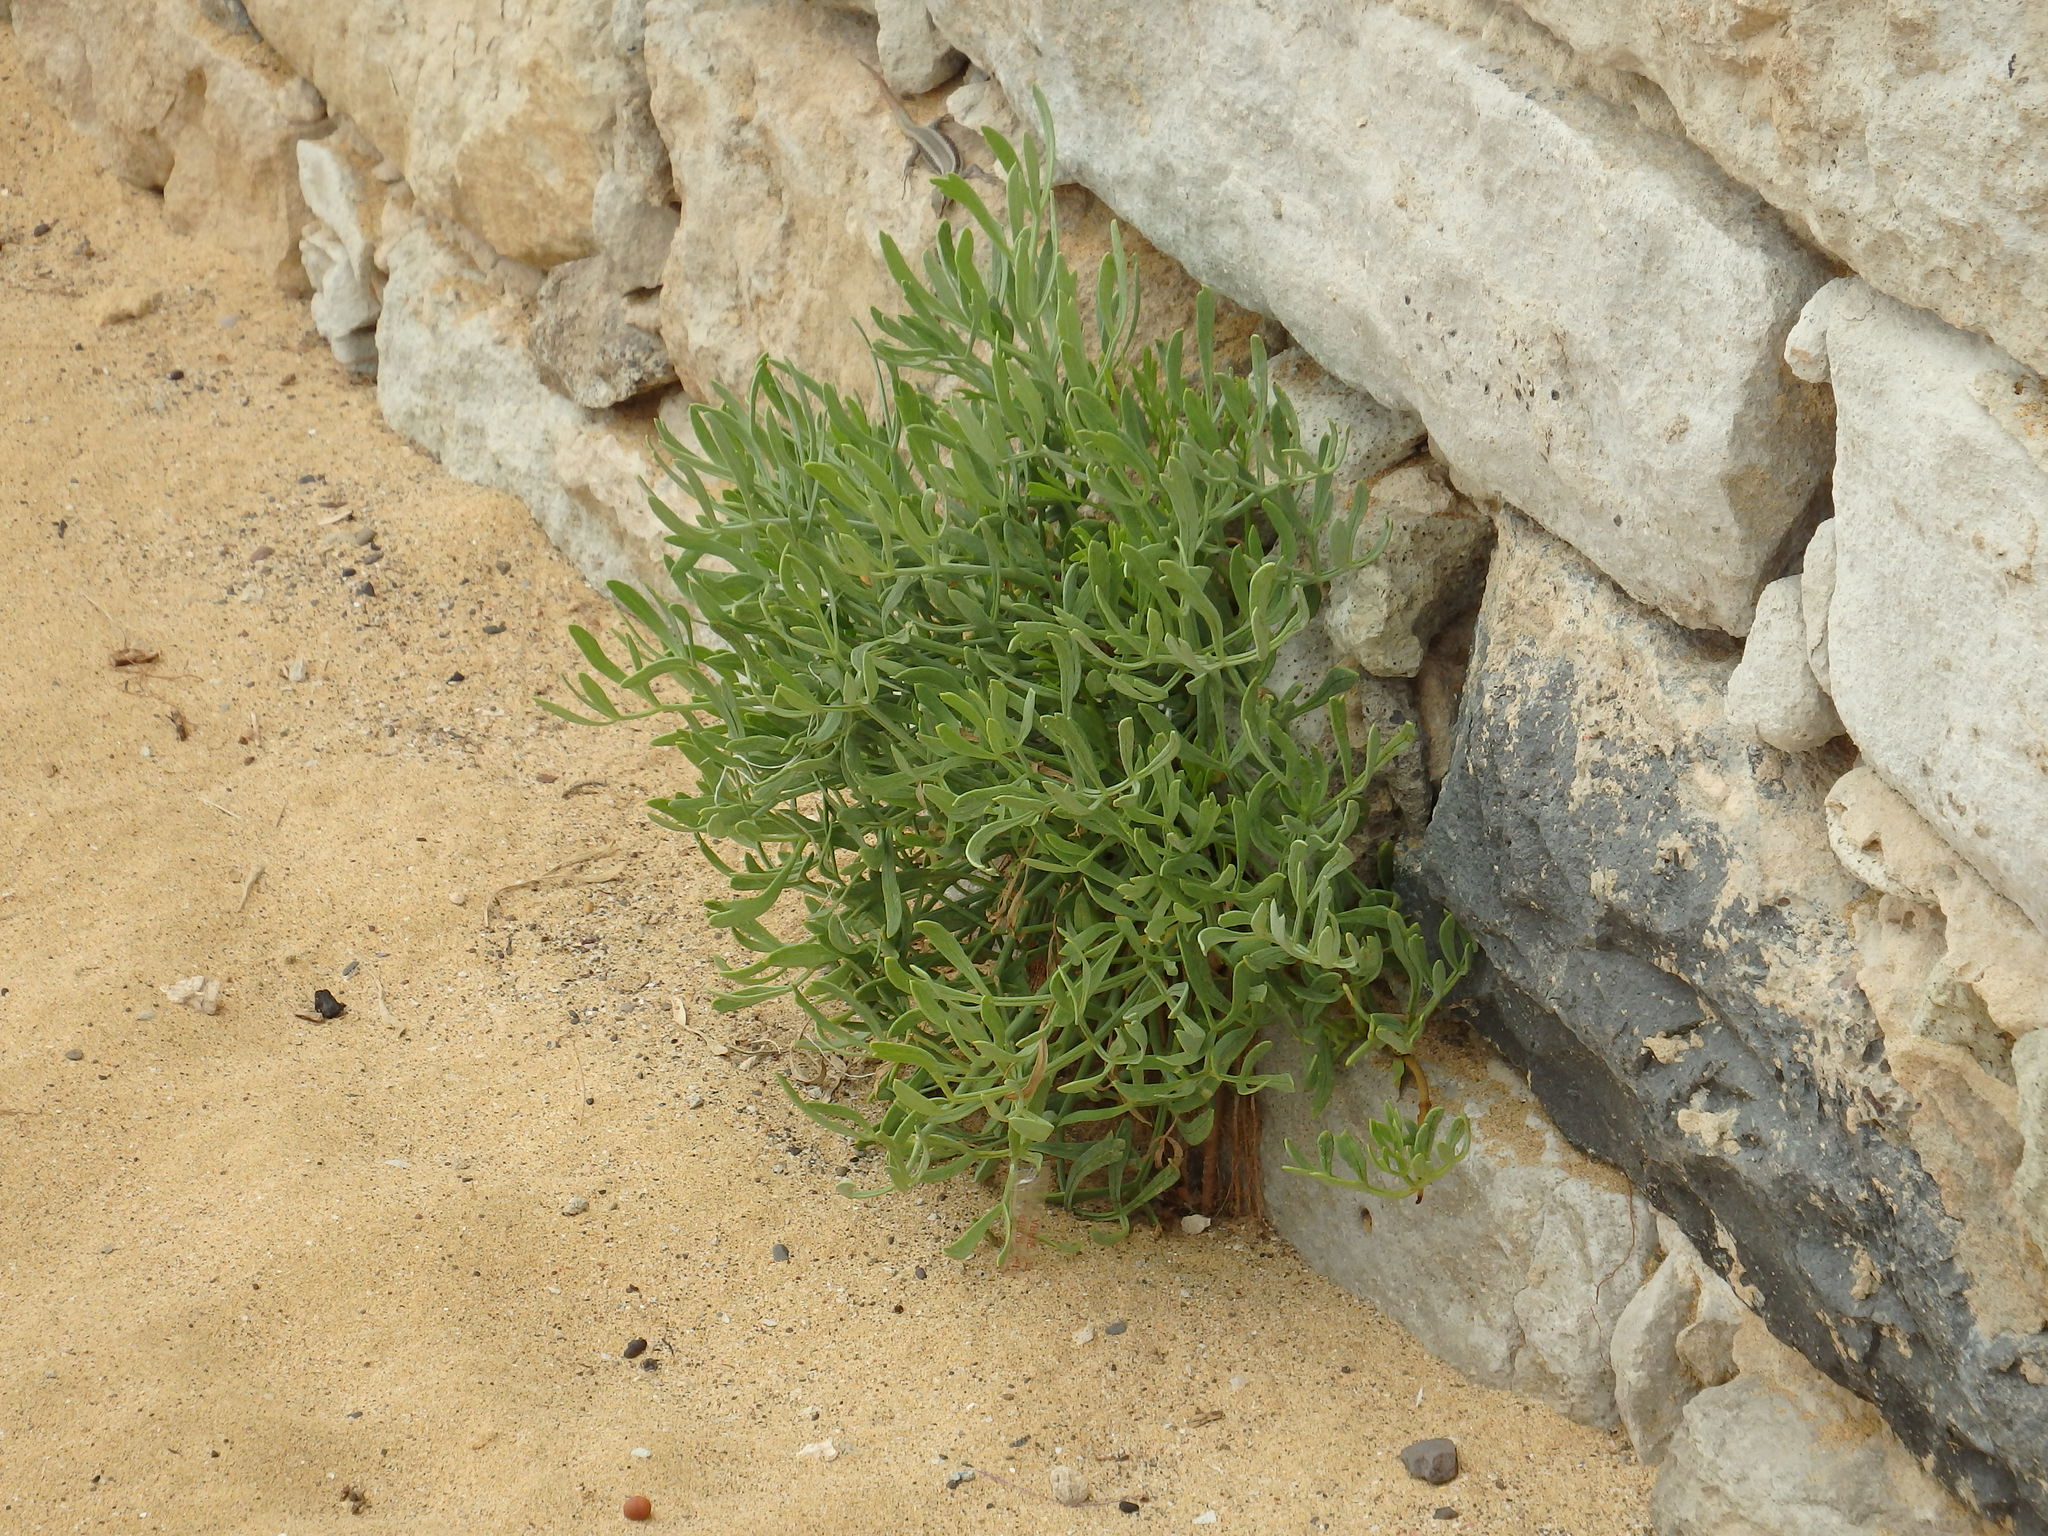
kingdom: Plantae
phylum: Tracheophyta
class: Magnoliopsida
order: Apiales
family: Apiaceae
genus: Crithmum
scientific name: Crithmum maritimum
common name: Rock samphire
